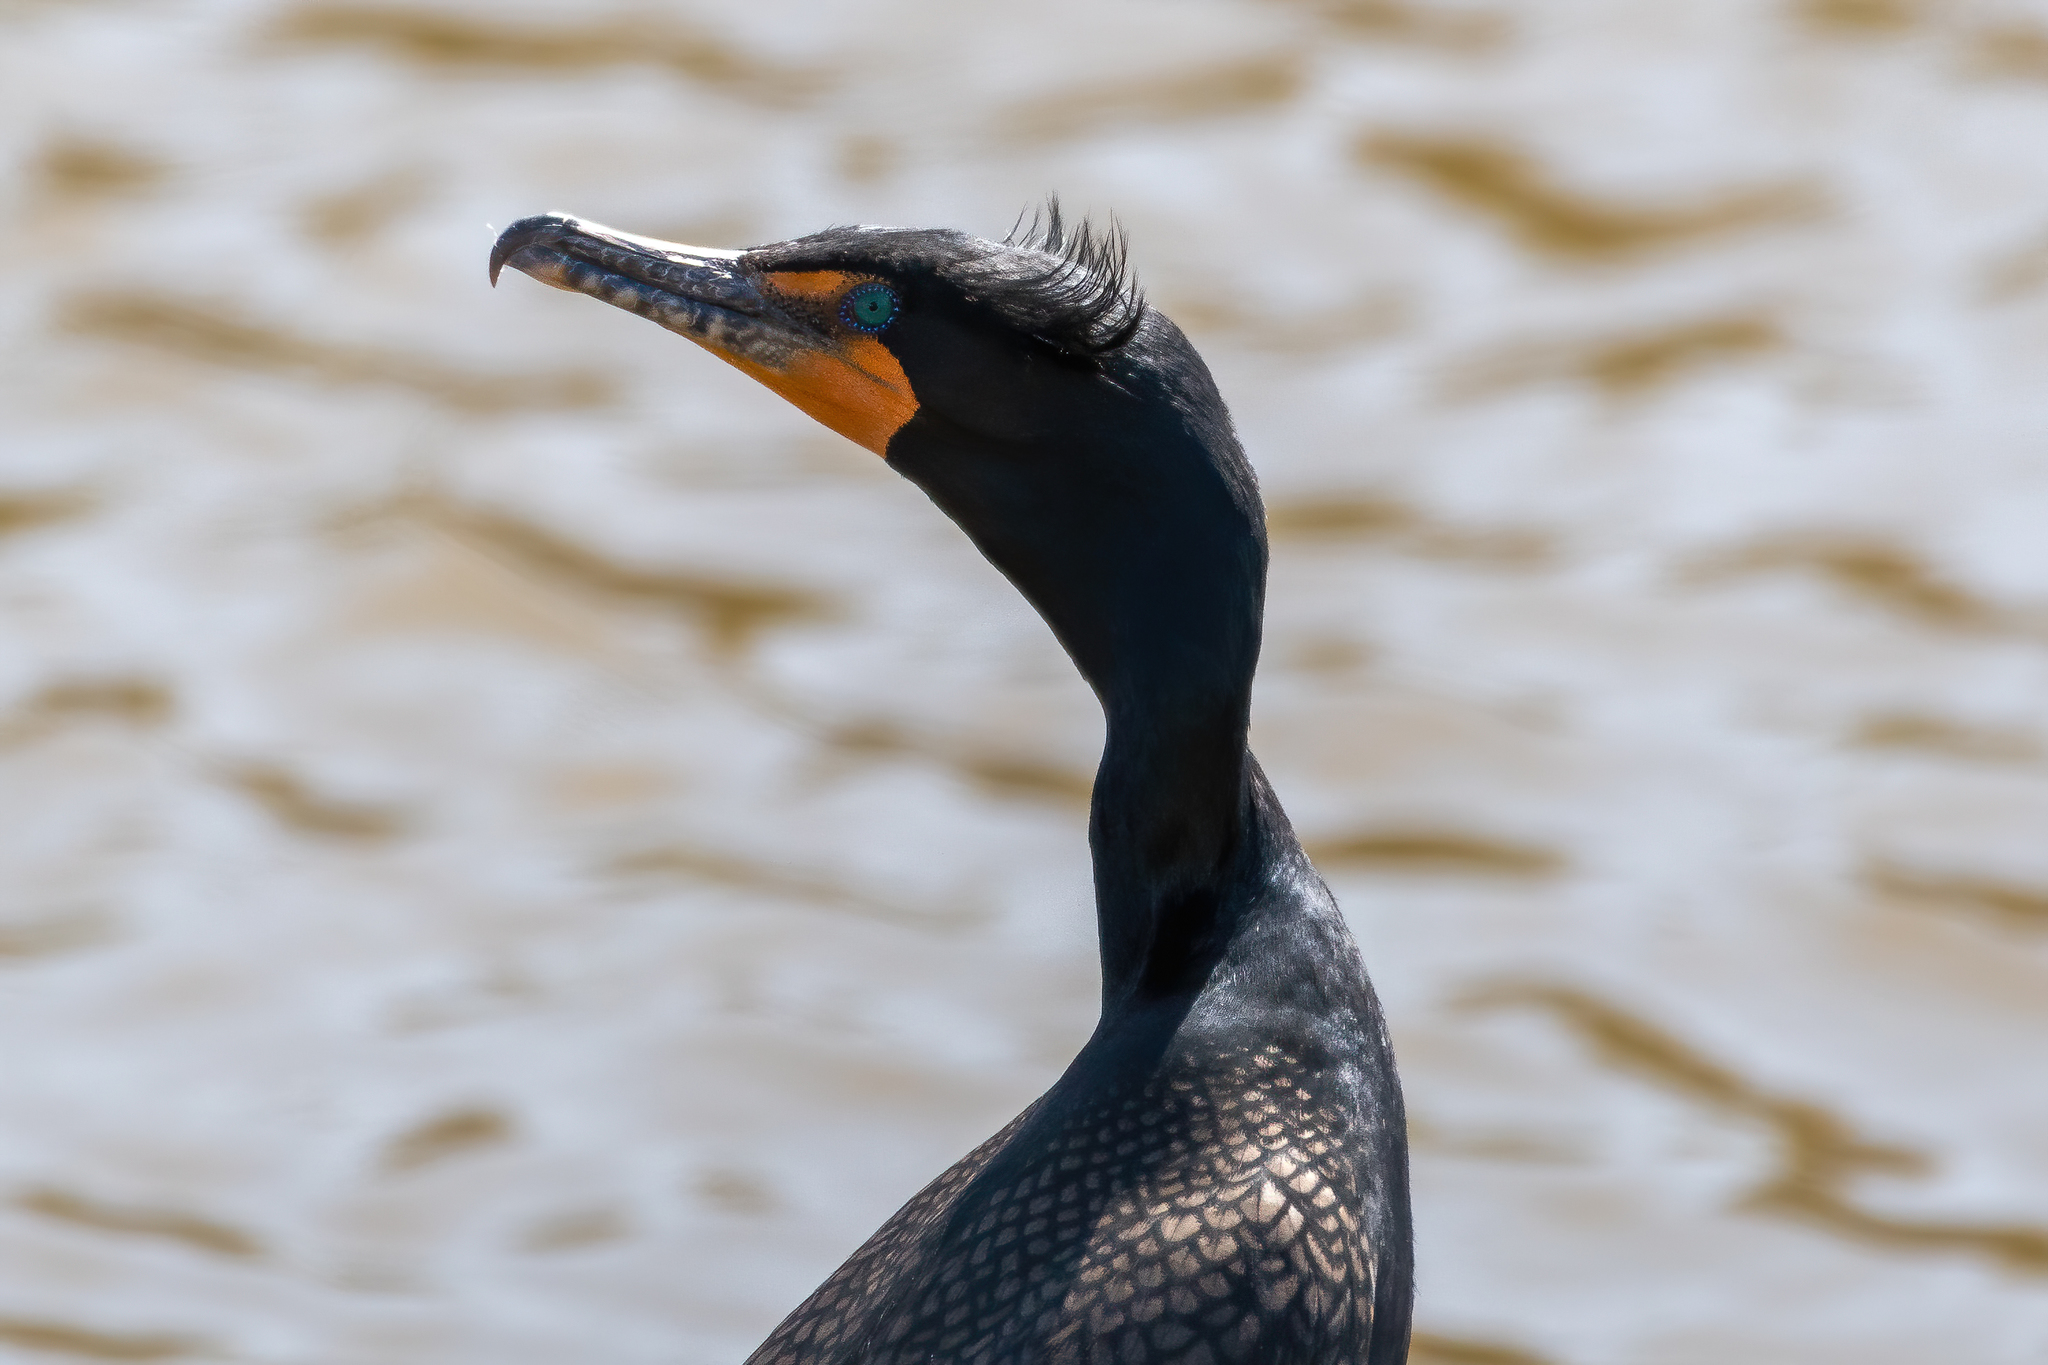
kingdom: Animalia
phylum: Chordata
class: Aves
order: Suliformes
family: Phalacrocoracidae
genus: Phalacrocorax
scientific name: Phalacrocorax auritus
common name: Double-crested cormorant
